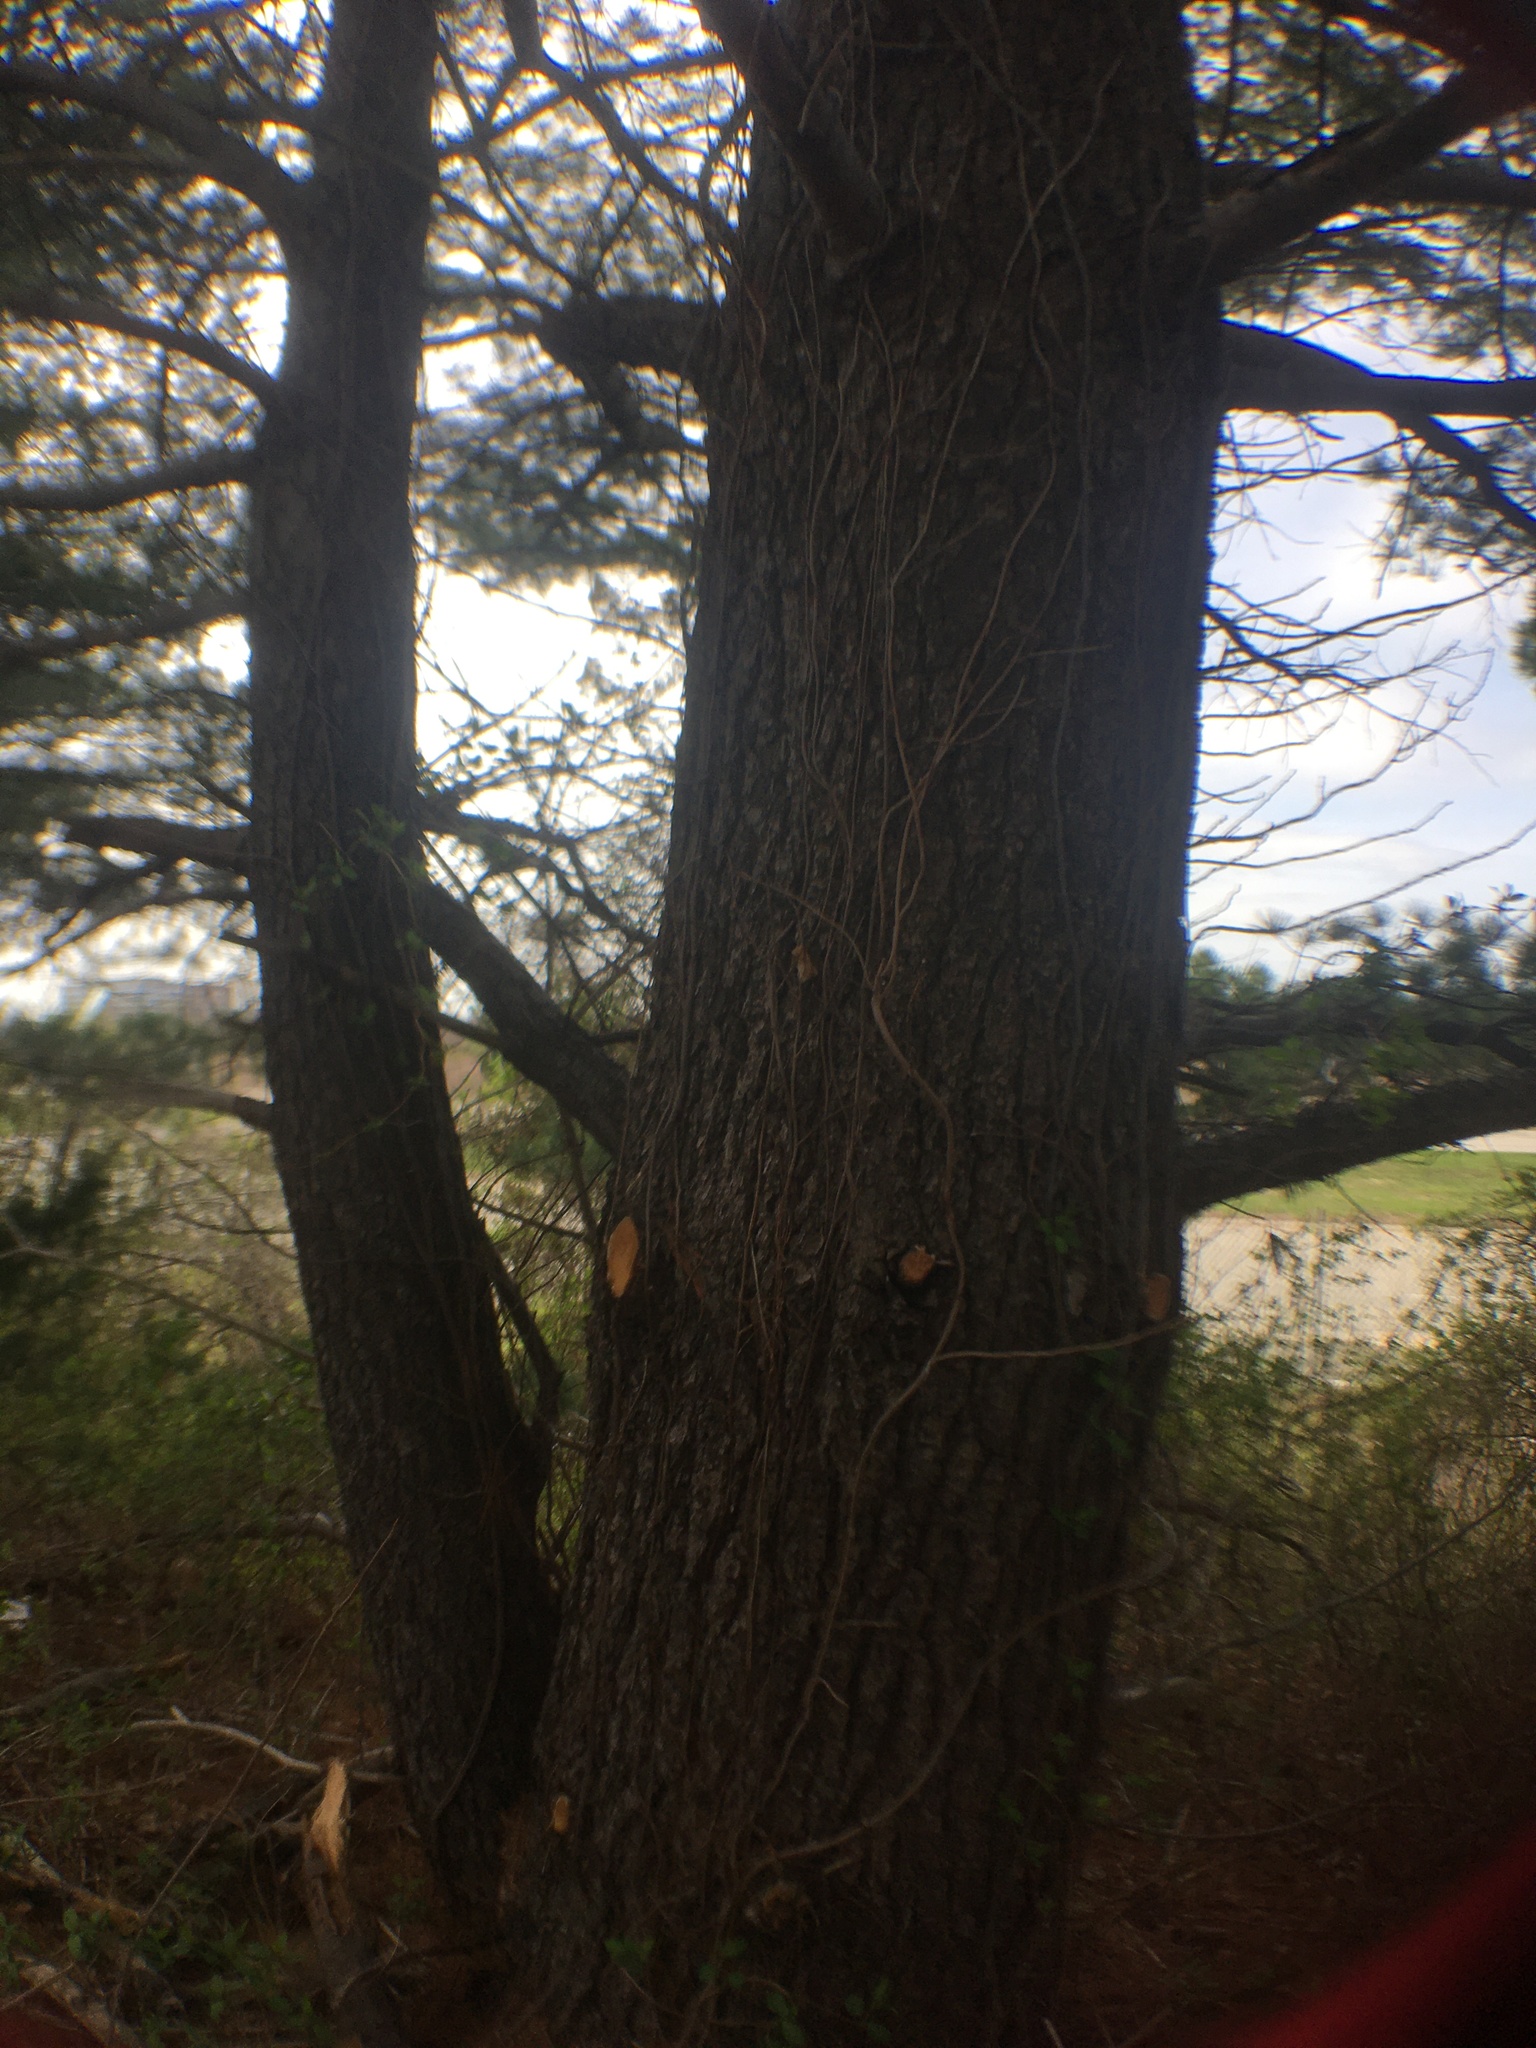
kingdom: Plantae
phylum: Tracheophyta
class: Pinopsida
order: Pinales
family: Pinaceae
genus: Pinus
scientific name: Pinus strobus
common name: Weymouth pine
